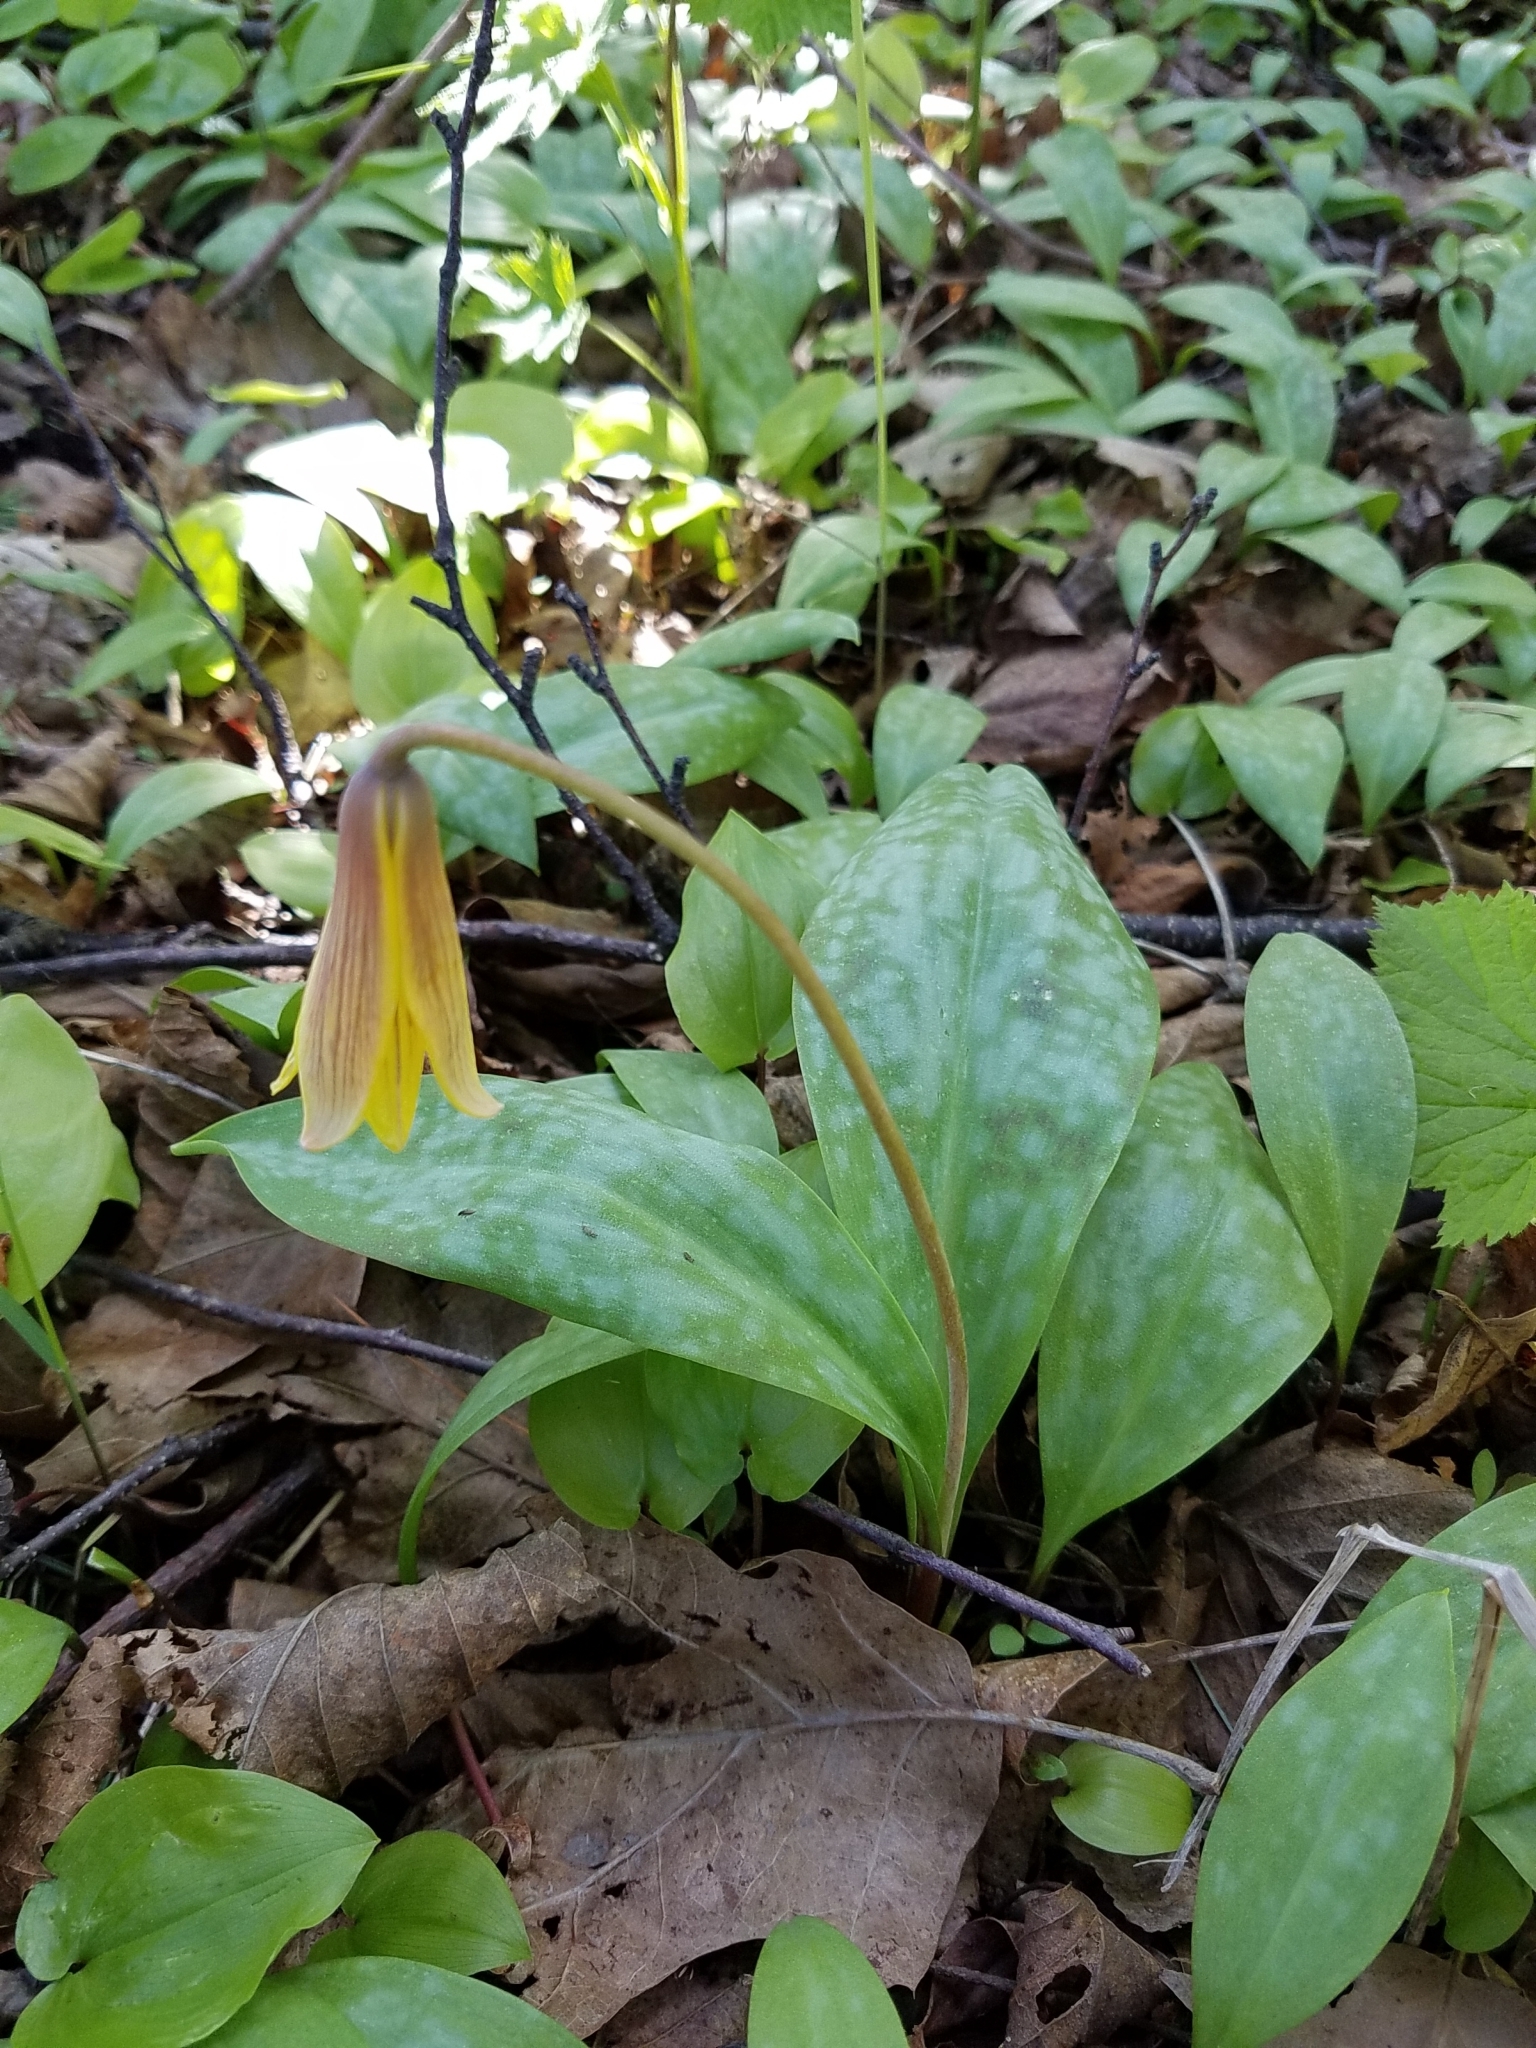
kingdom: Plantae
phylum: Tracheophyta
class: Liliopsida
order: Liliales
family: Liliaceae
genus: Erythronium
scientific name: Erythronium americanum
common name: Yellow adder's-tongue
